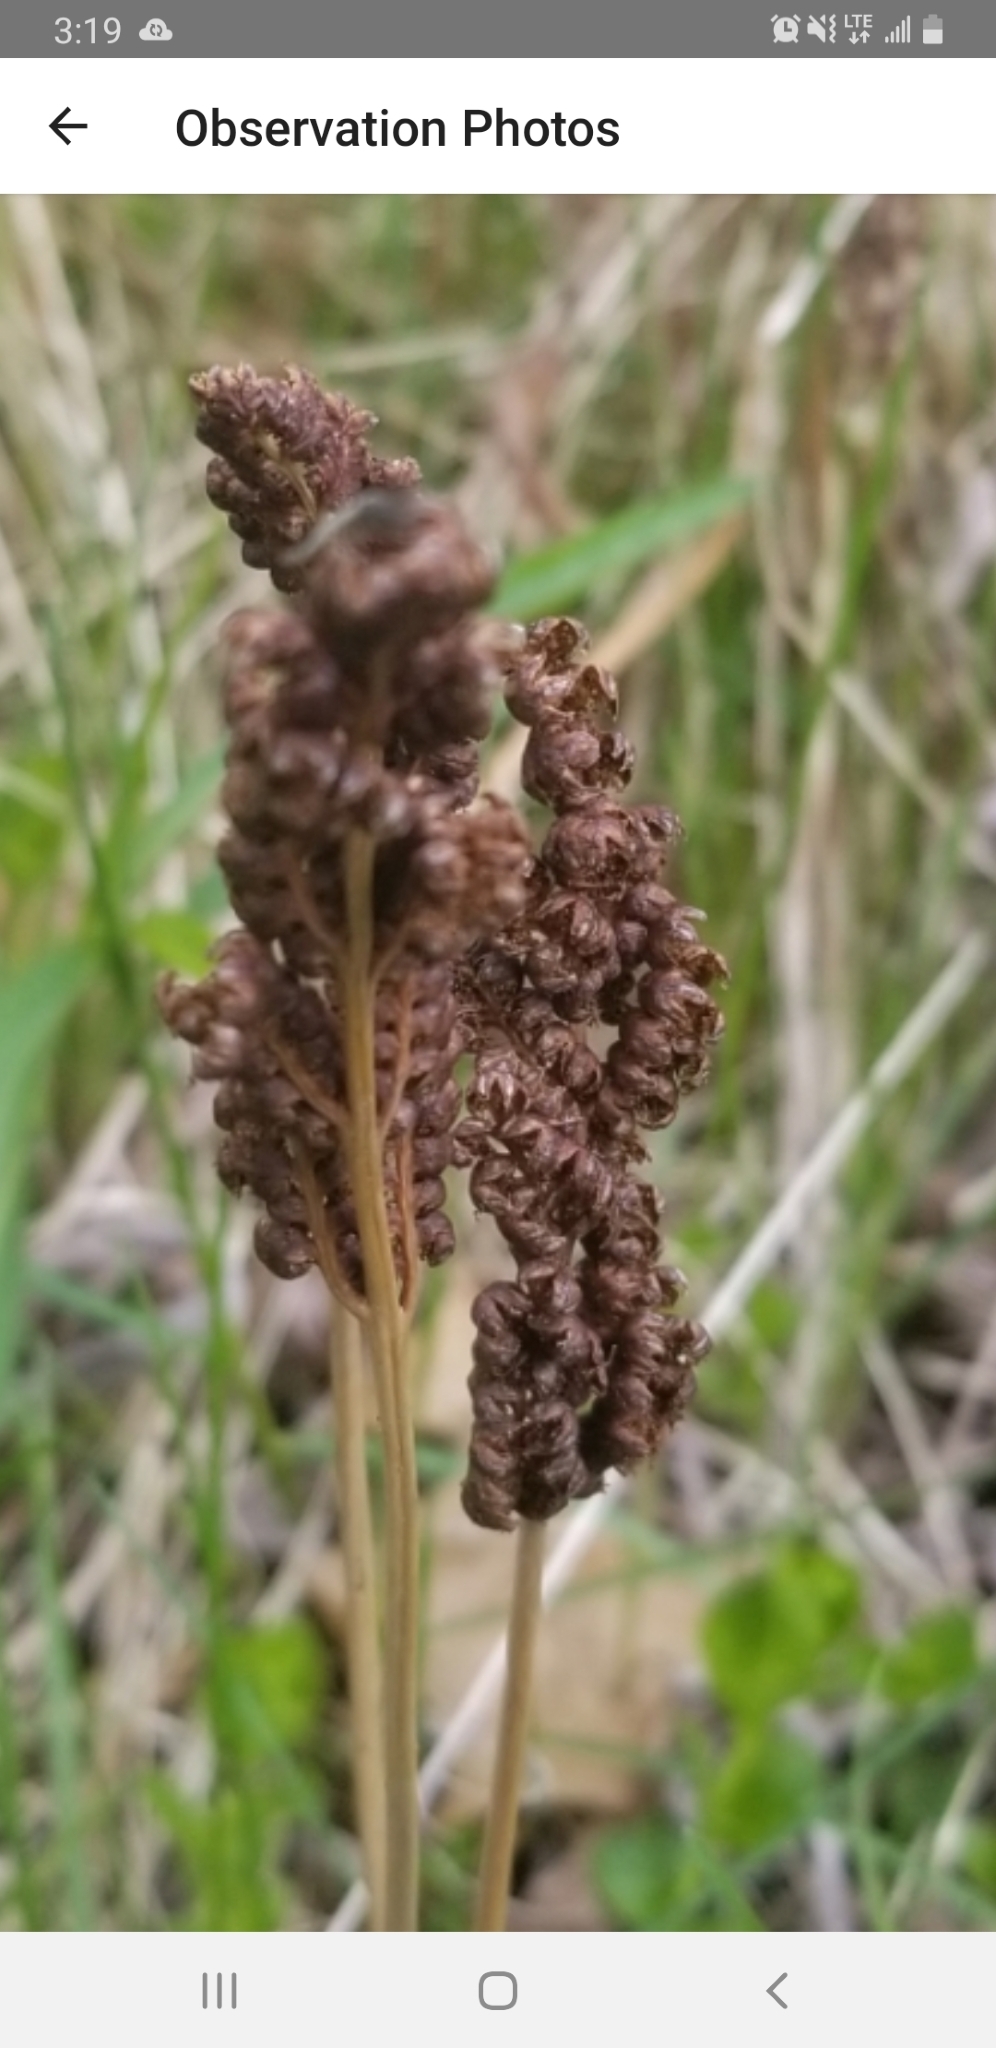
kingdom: Plantae
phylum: Tracheophyta
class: Polypodiopsida
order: Polypodiales
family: Onocleaceae
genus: Onoclea
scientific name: Onoclea sensibilis
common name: Sensitive fern
